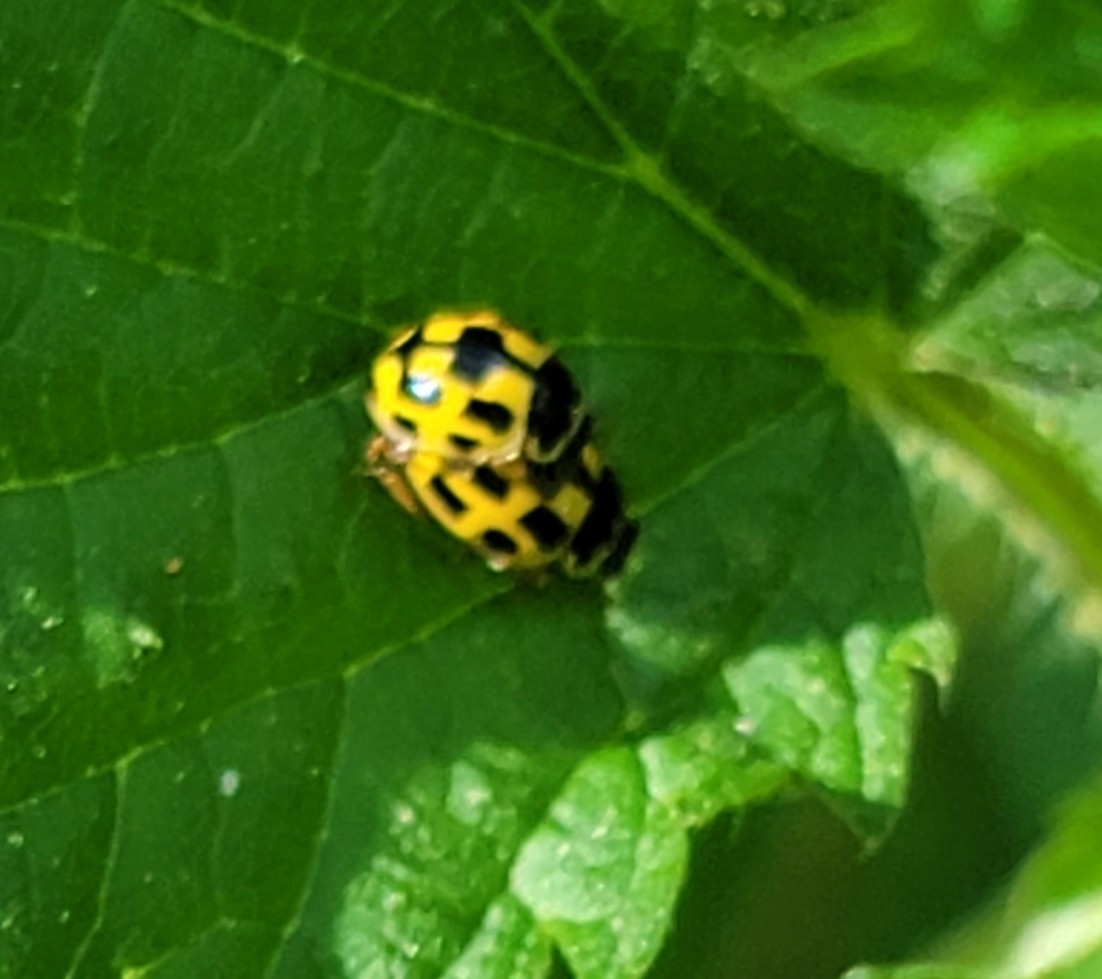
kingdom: Animalia
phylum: Arthropoda
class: Insecta
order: Coleoptera
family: Coccinellidae
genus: Propylaea
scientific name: Propylaea quatuordecimpunctata
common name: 14-spotted ladybird beetle
